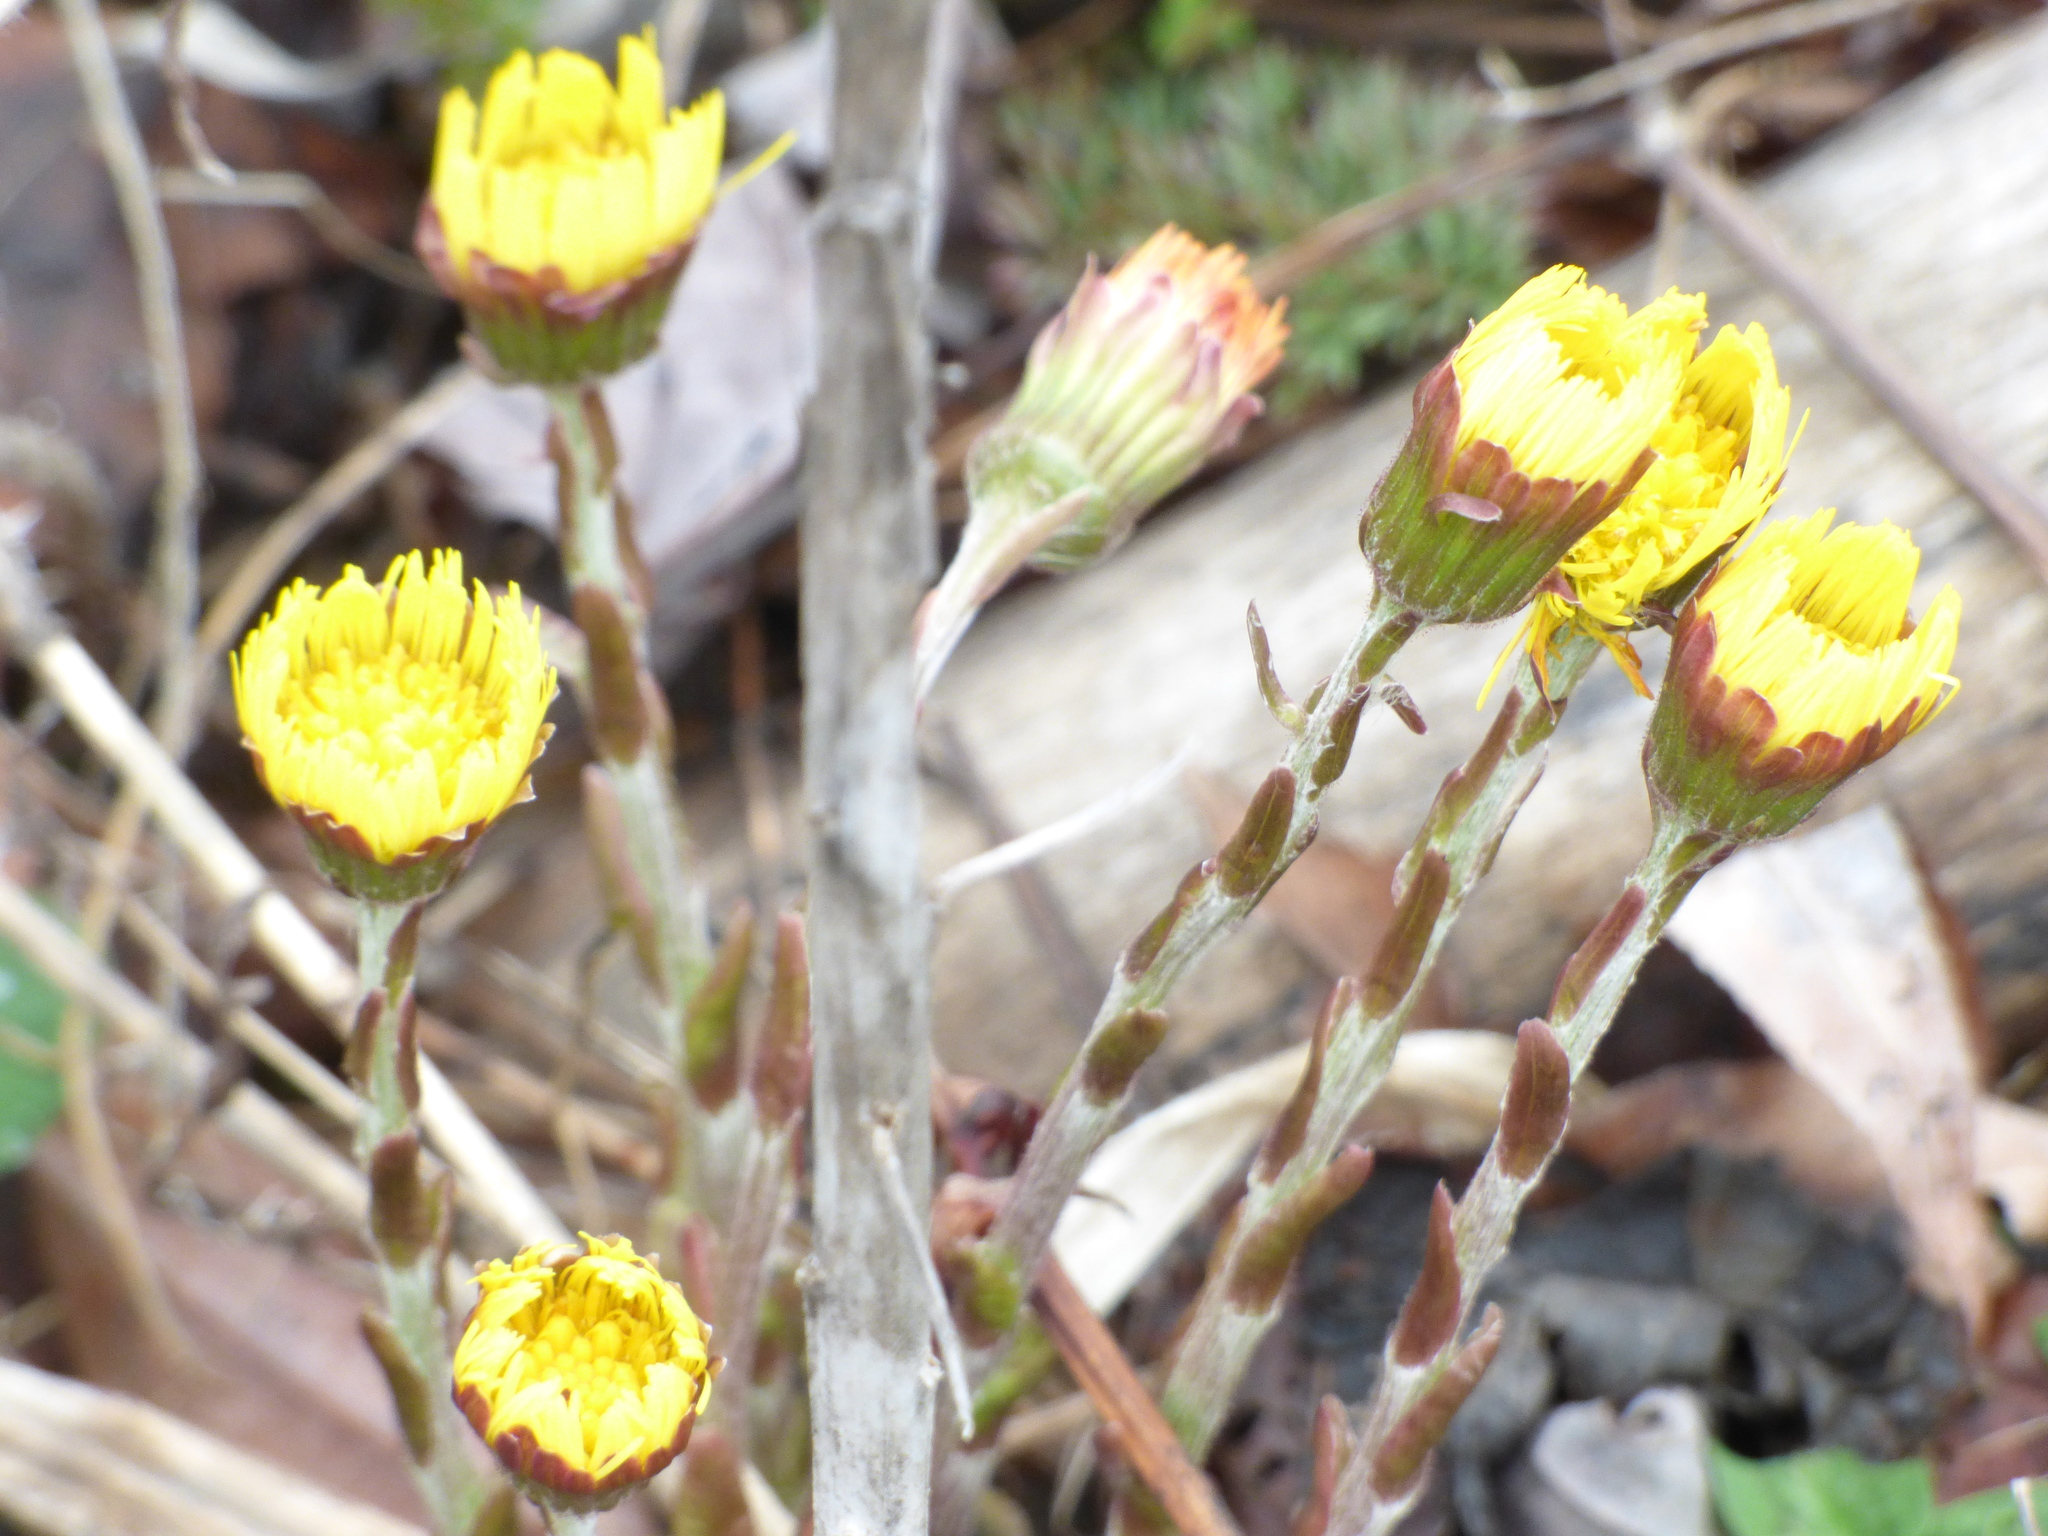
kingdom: Plantae
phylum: Tracheophyta
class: Magnoliopsida
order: Asterales
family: Asteraceae
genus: Tussilago
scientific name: Tussilago farfara
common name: Coltsfoot
